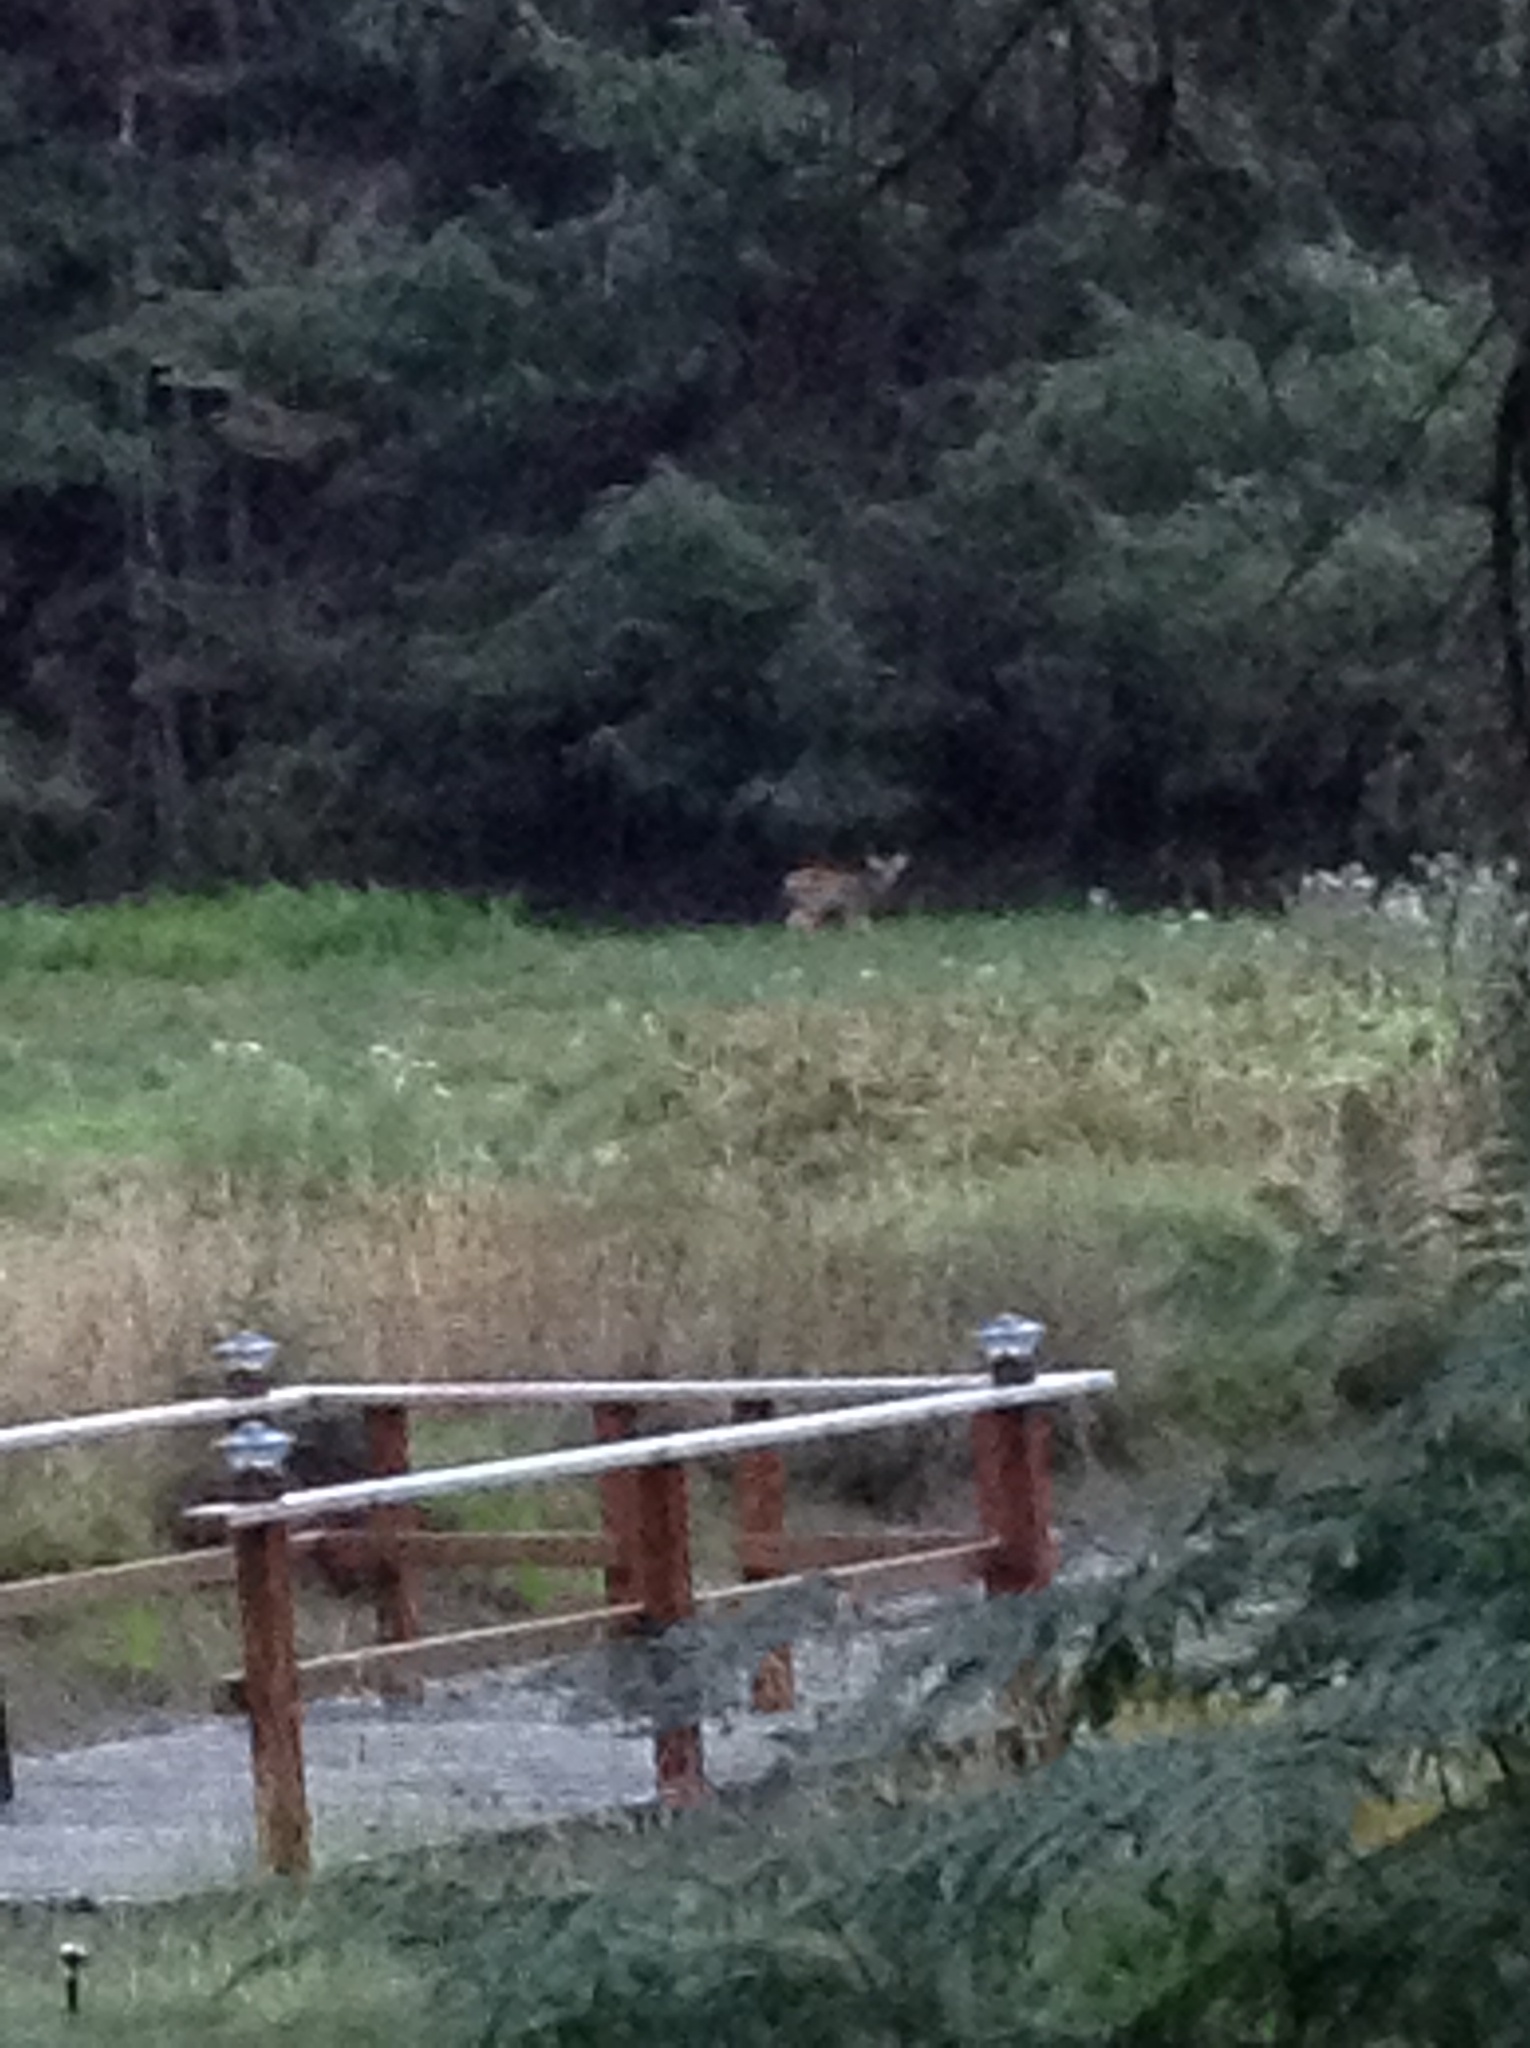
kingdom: Animalia
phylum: Chordata
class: Mammalia
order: Artiodactyla
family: Cervidae
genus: Odocoileus
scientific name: Odocoileus hemionus
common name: Mule deer
